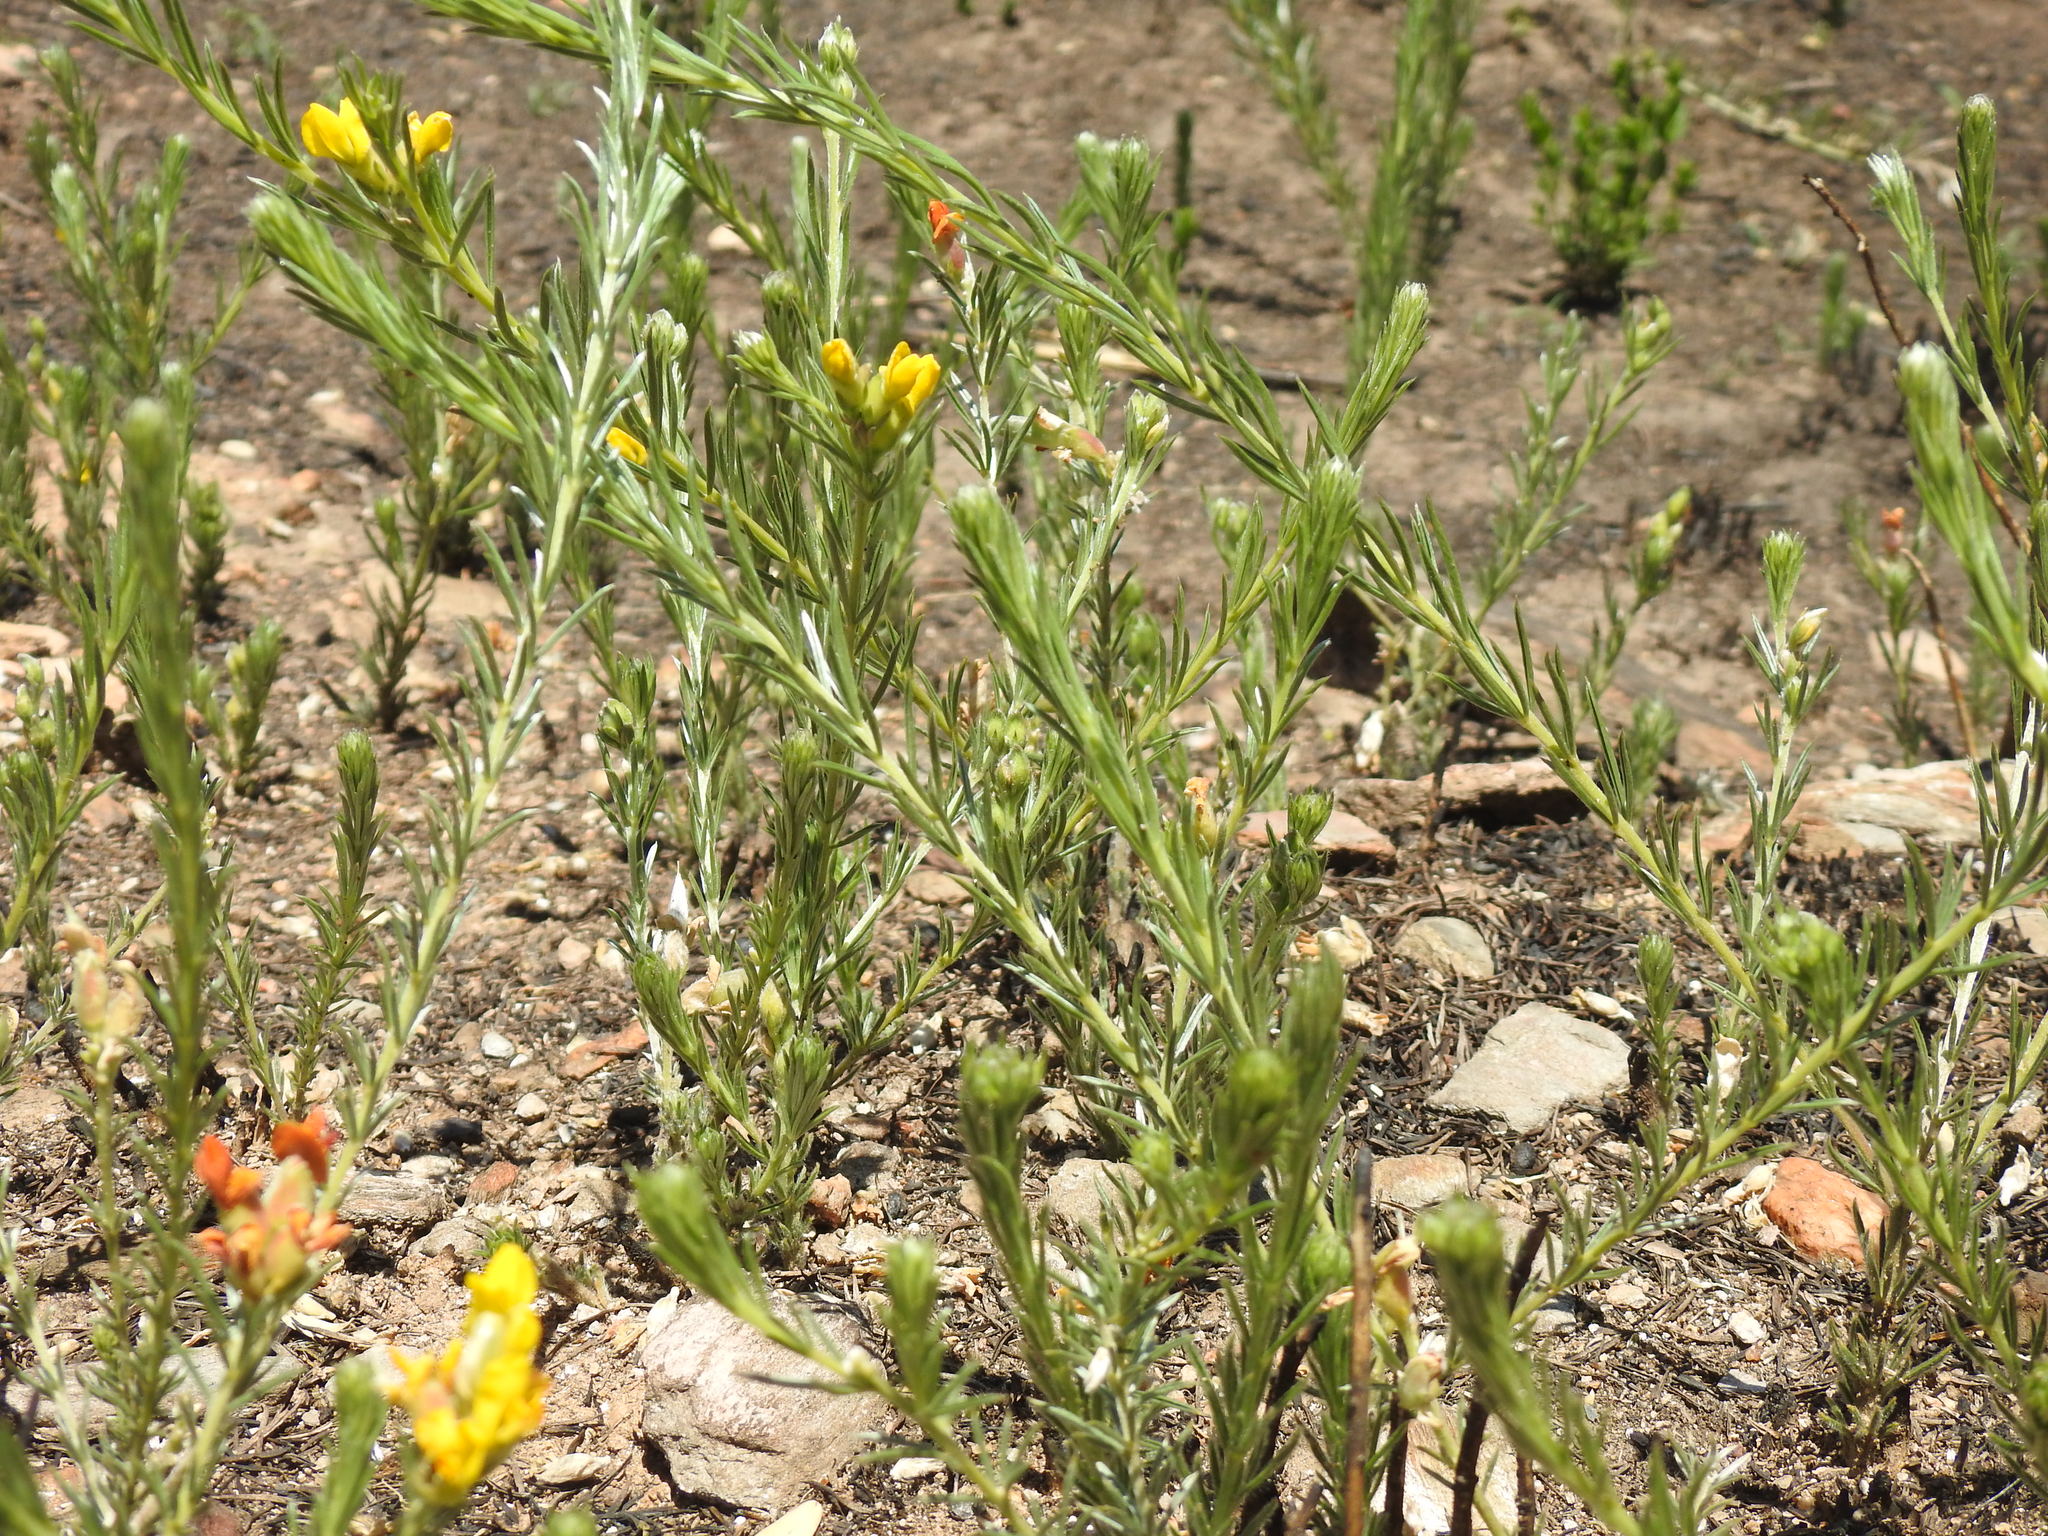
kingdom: Plantae
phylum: Tracheophyta
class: Magnoliopsida
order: Fabales
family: Fabaceae
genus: Pearsonia
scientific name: Pearsonia sessilifolia
